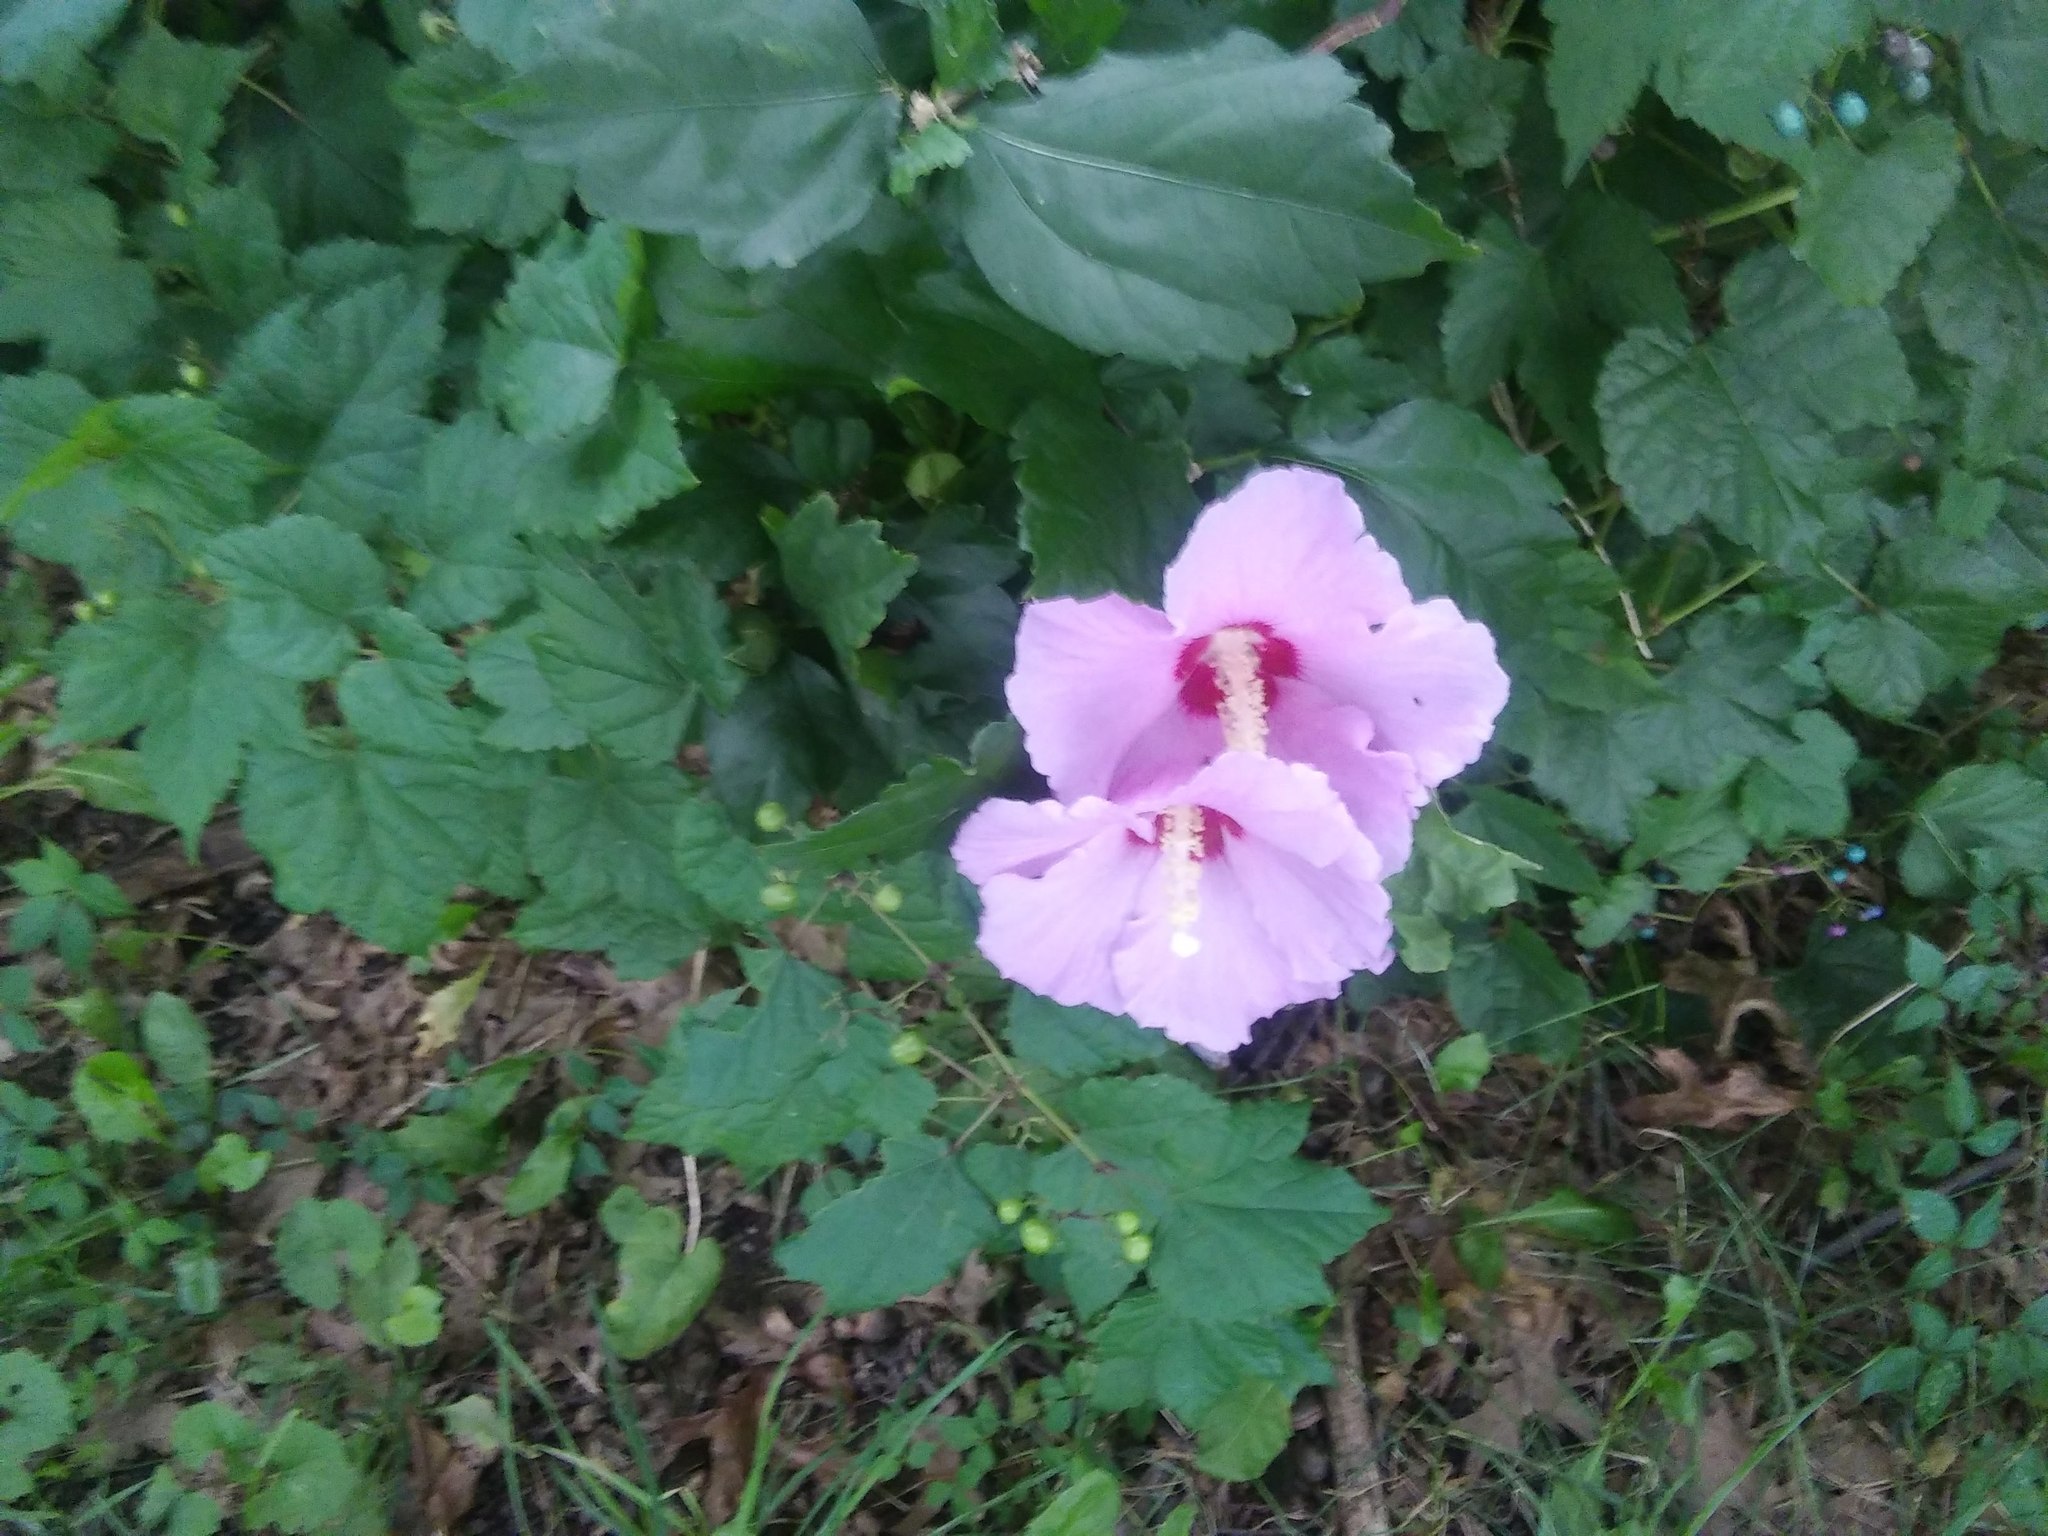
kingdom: Plantae
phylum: Tracheophyta
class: Magnoliopsida
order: Malvales
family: Malvaceae
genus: Hibiscus
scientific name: Hibiscus syriacus
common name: Syrian ketmia
